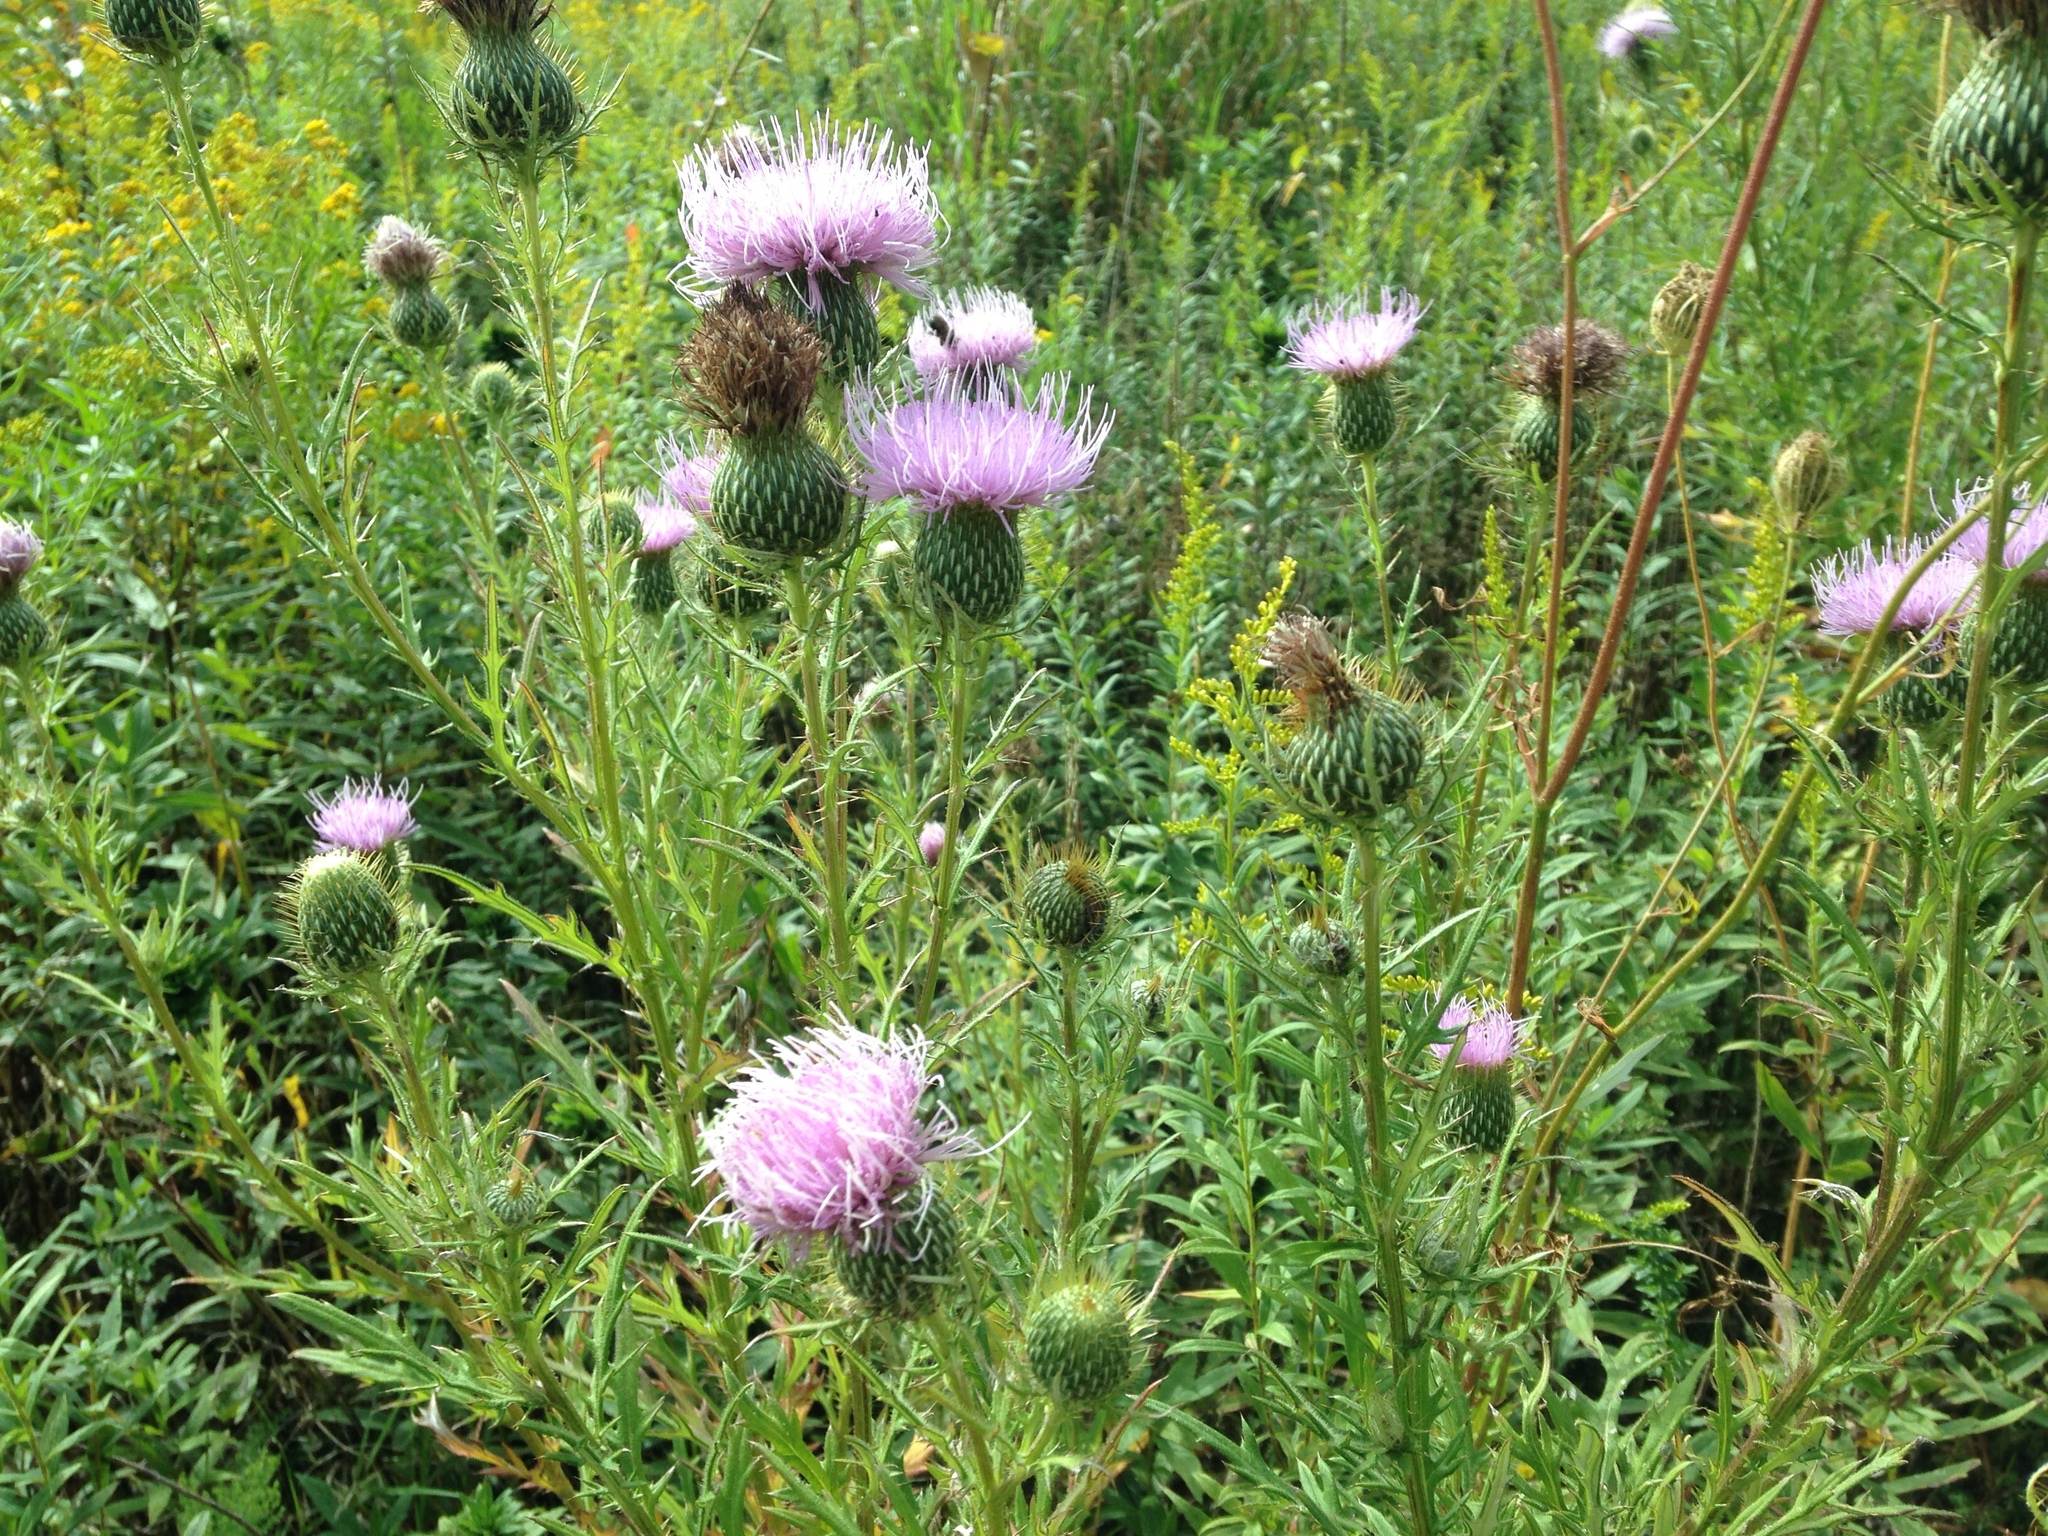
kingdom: Plantae
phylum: Tracheophyta
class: Magnoliopsida
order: Asterales
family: Asteraceae
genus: Cirsium
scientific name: Cirsium discolor
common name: Field thistle
